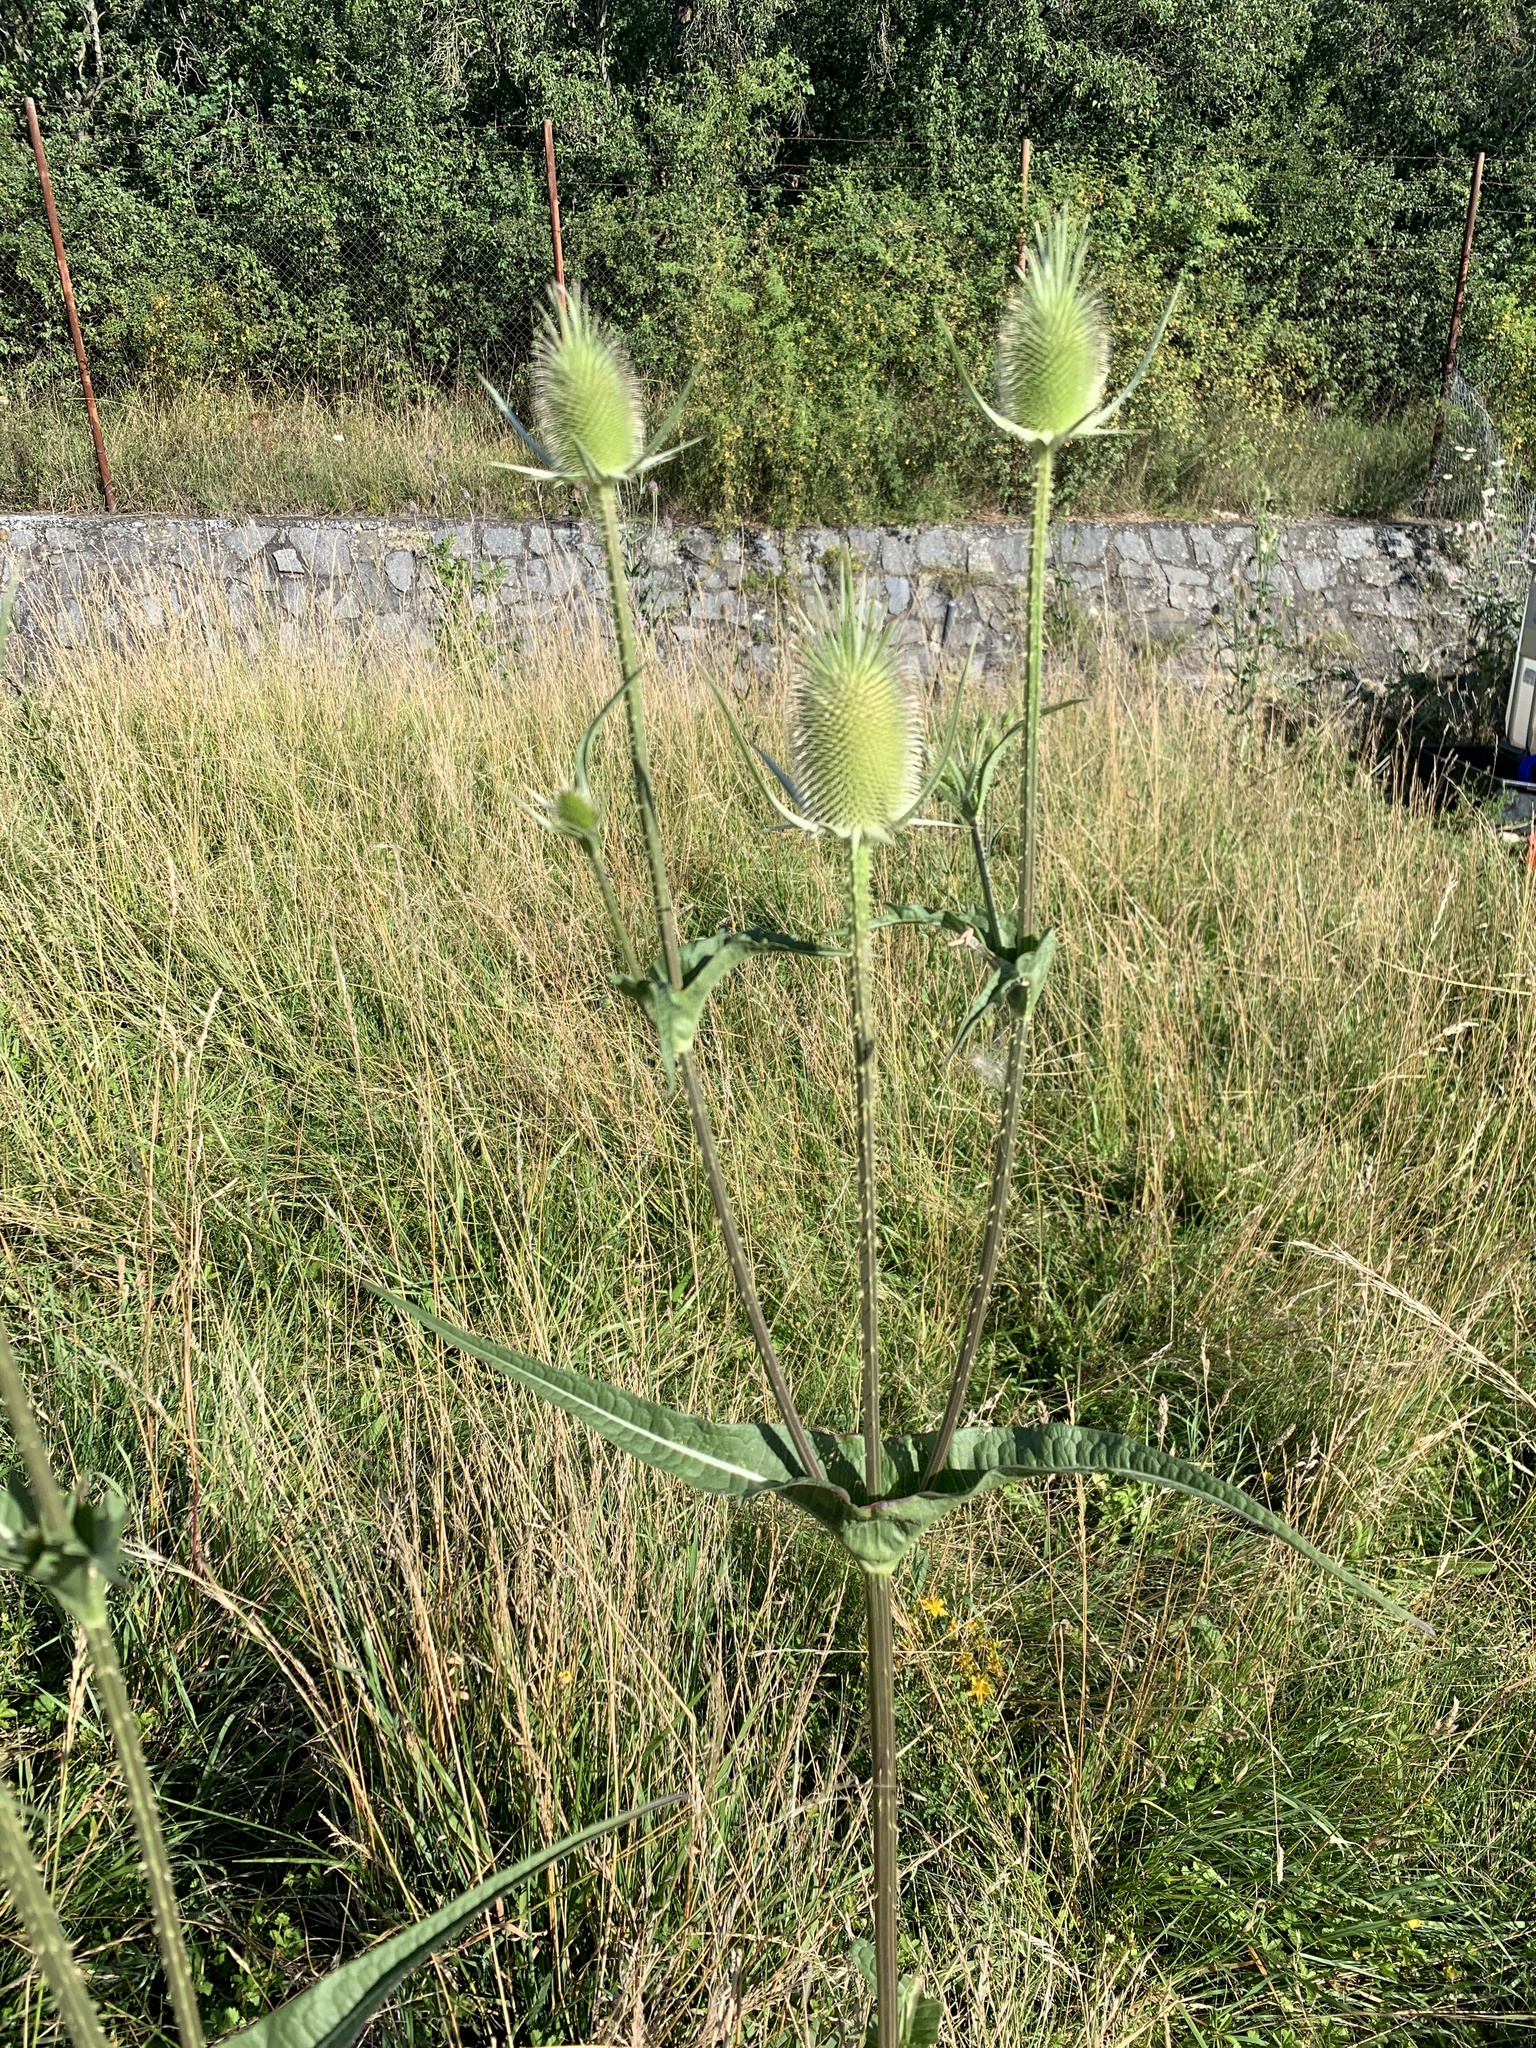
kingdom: Plantae
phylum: Tracheophyta
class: Magnoliopsida
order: Dipsacales
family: Caprifoliaceae
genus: Dipsacus
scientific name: Dipsacus laciniatus
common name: Cut-leaved teasel
